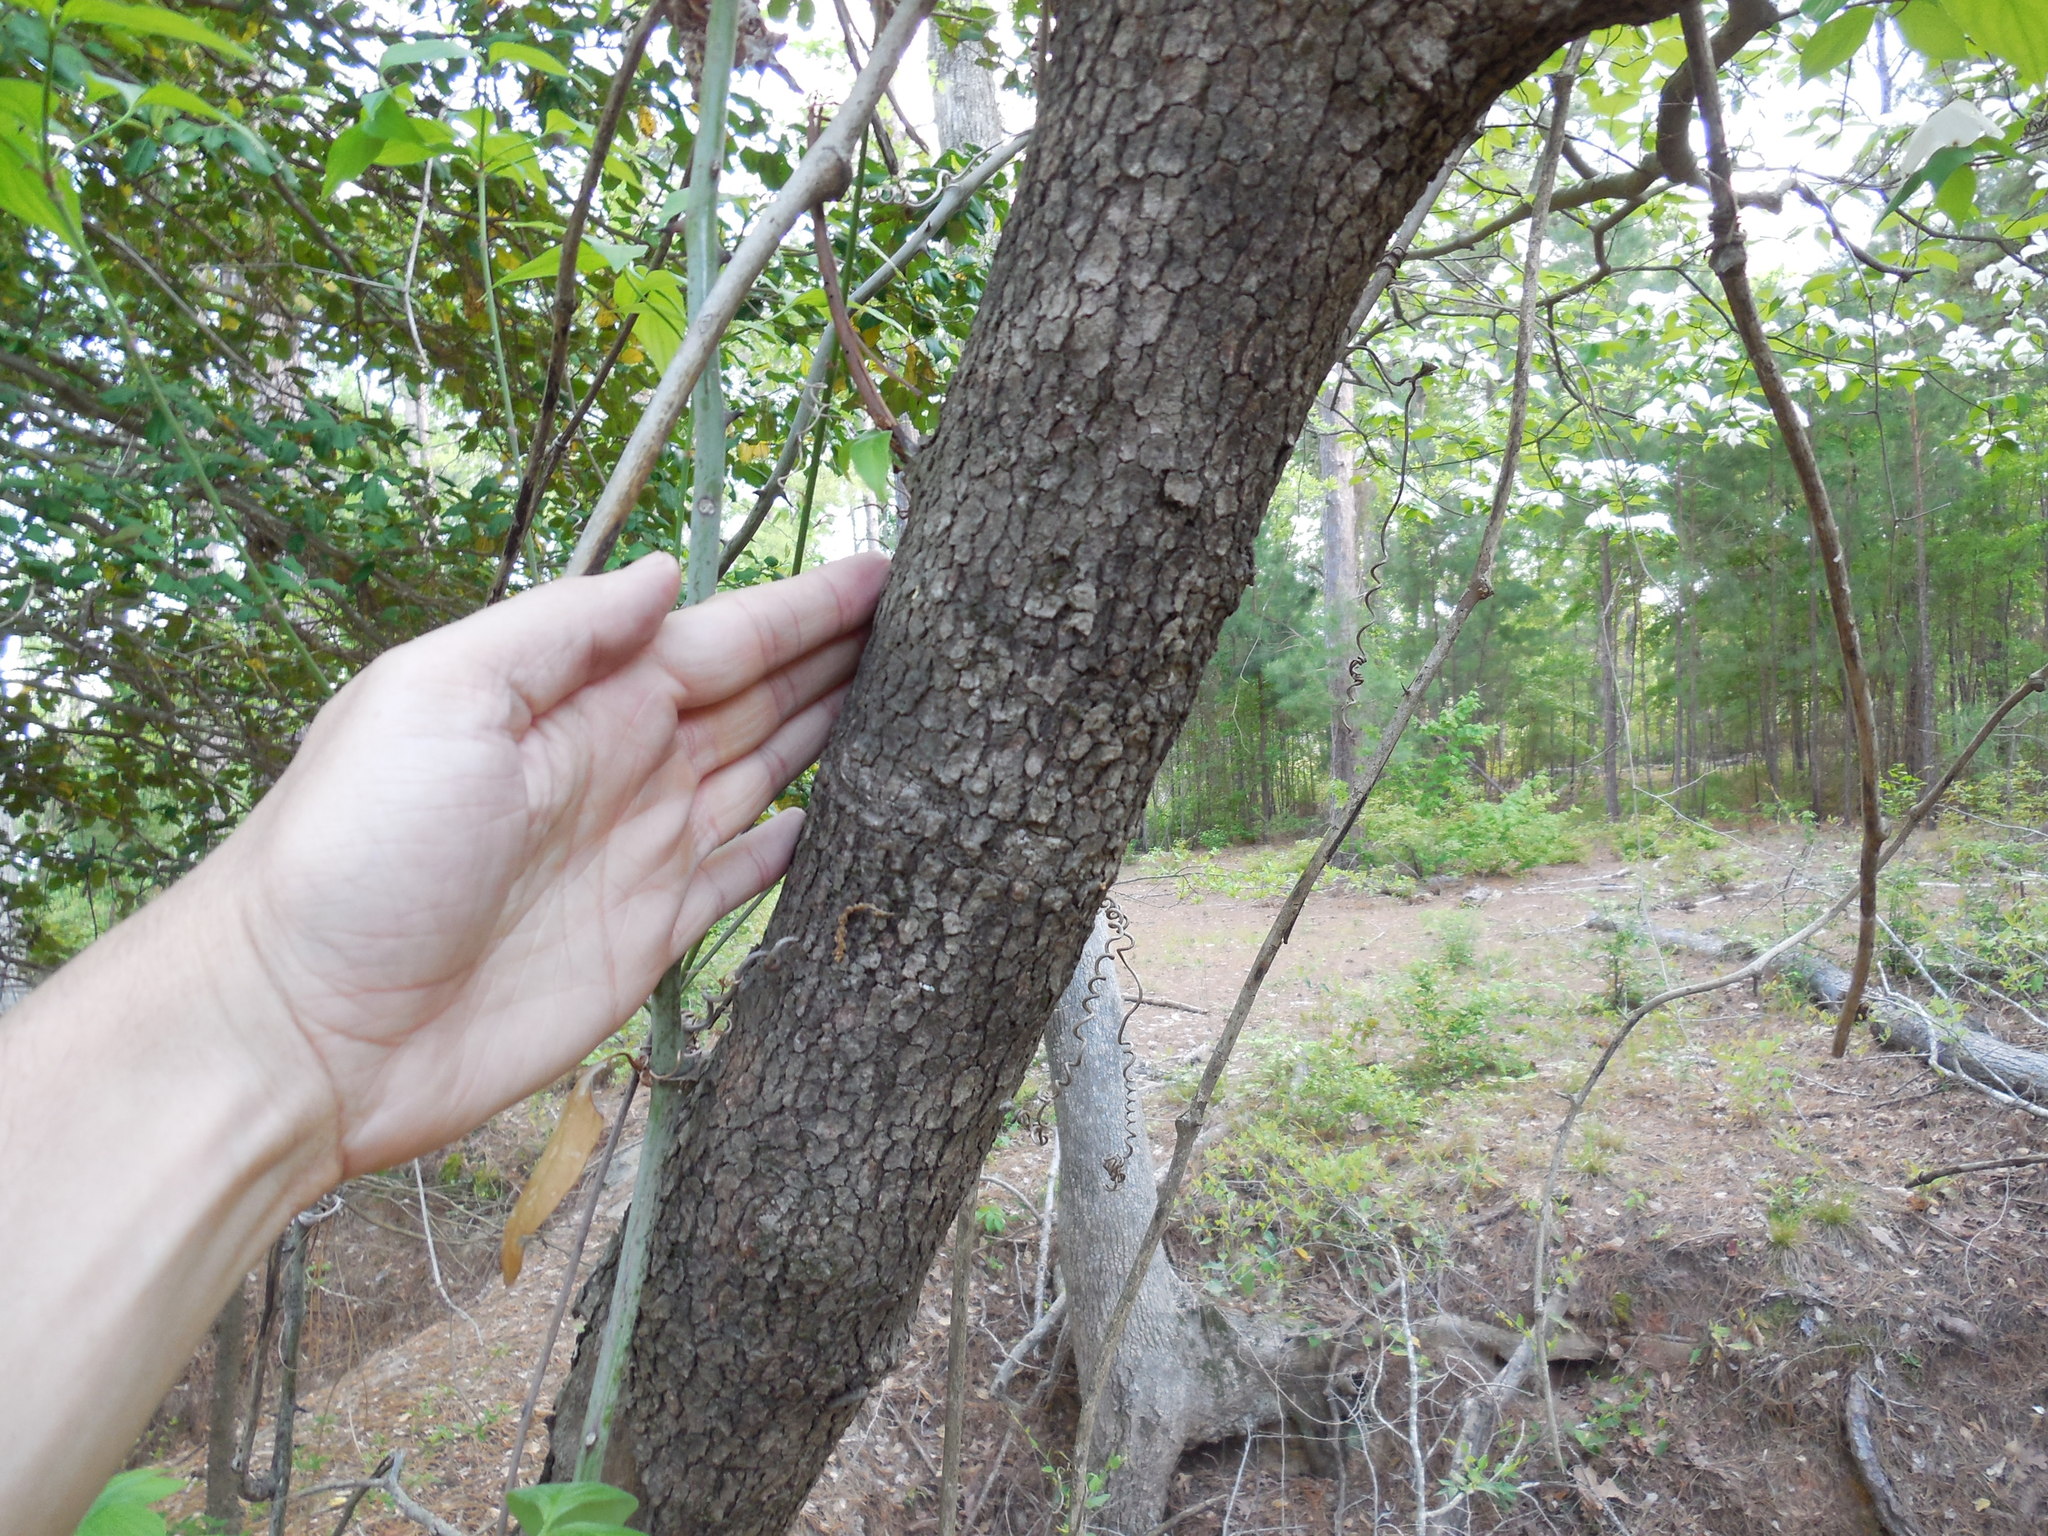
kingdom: Plantae
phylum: Tracheophyta
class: Magnoliopsida
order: Cornales
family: Cornaceae
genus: Cornus
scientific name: Cornus florida
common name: Flowering dogwood
